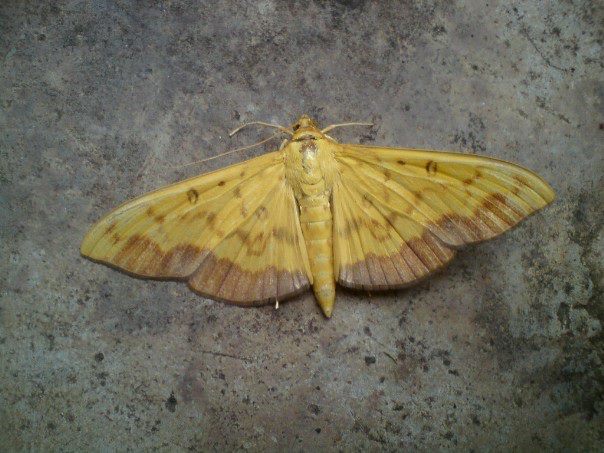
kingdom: Animalia
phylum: Arthropoda
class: Insecta
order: Lepidoptera
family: Crambidae
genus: Botyodes
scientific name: Botyodes asialis
